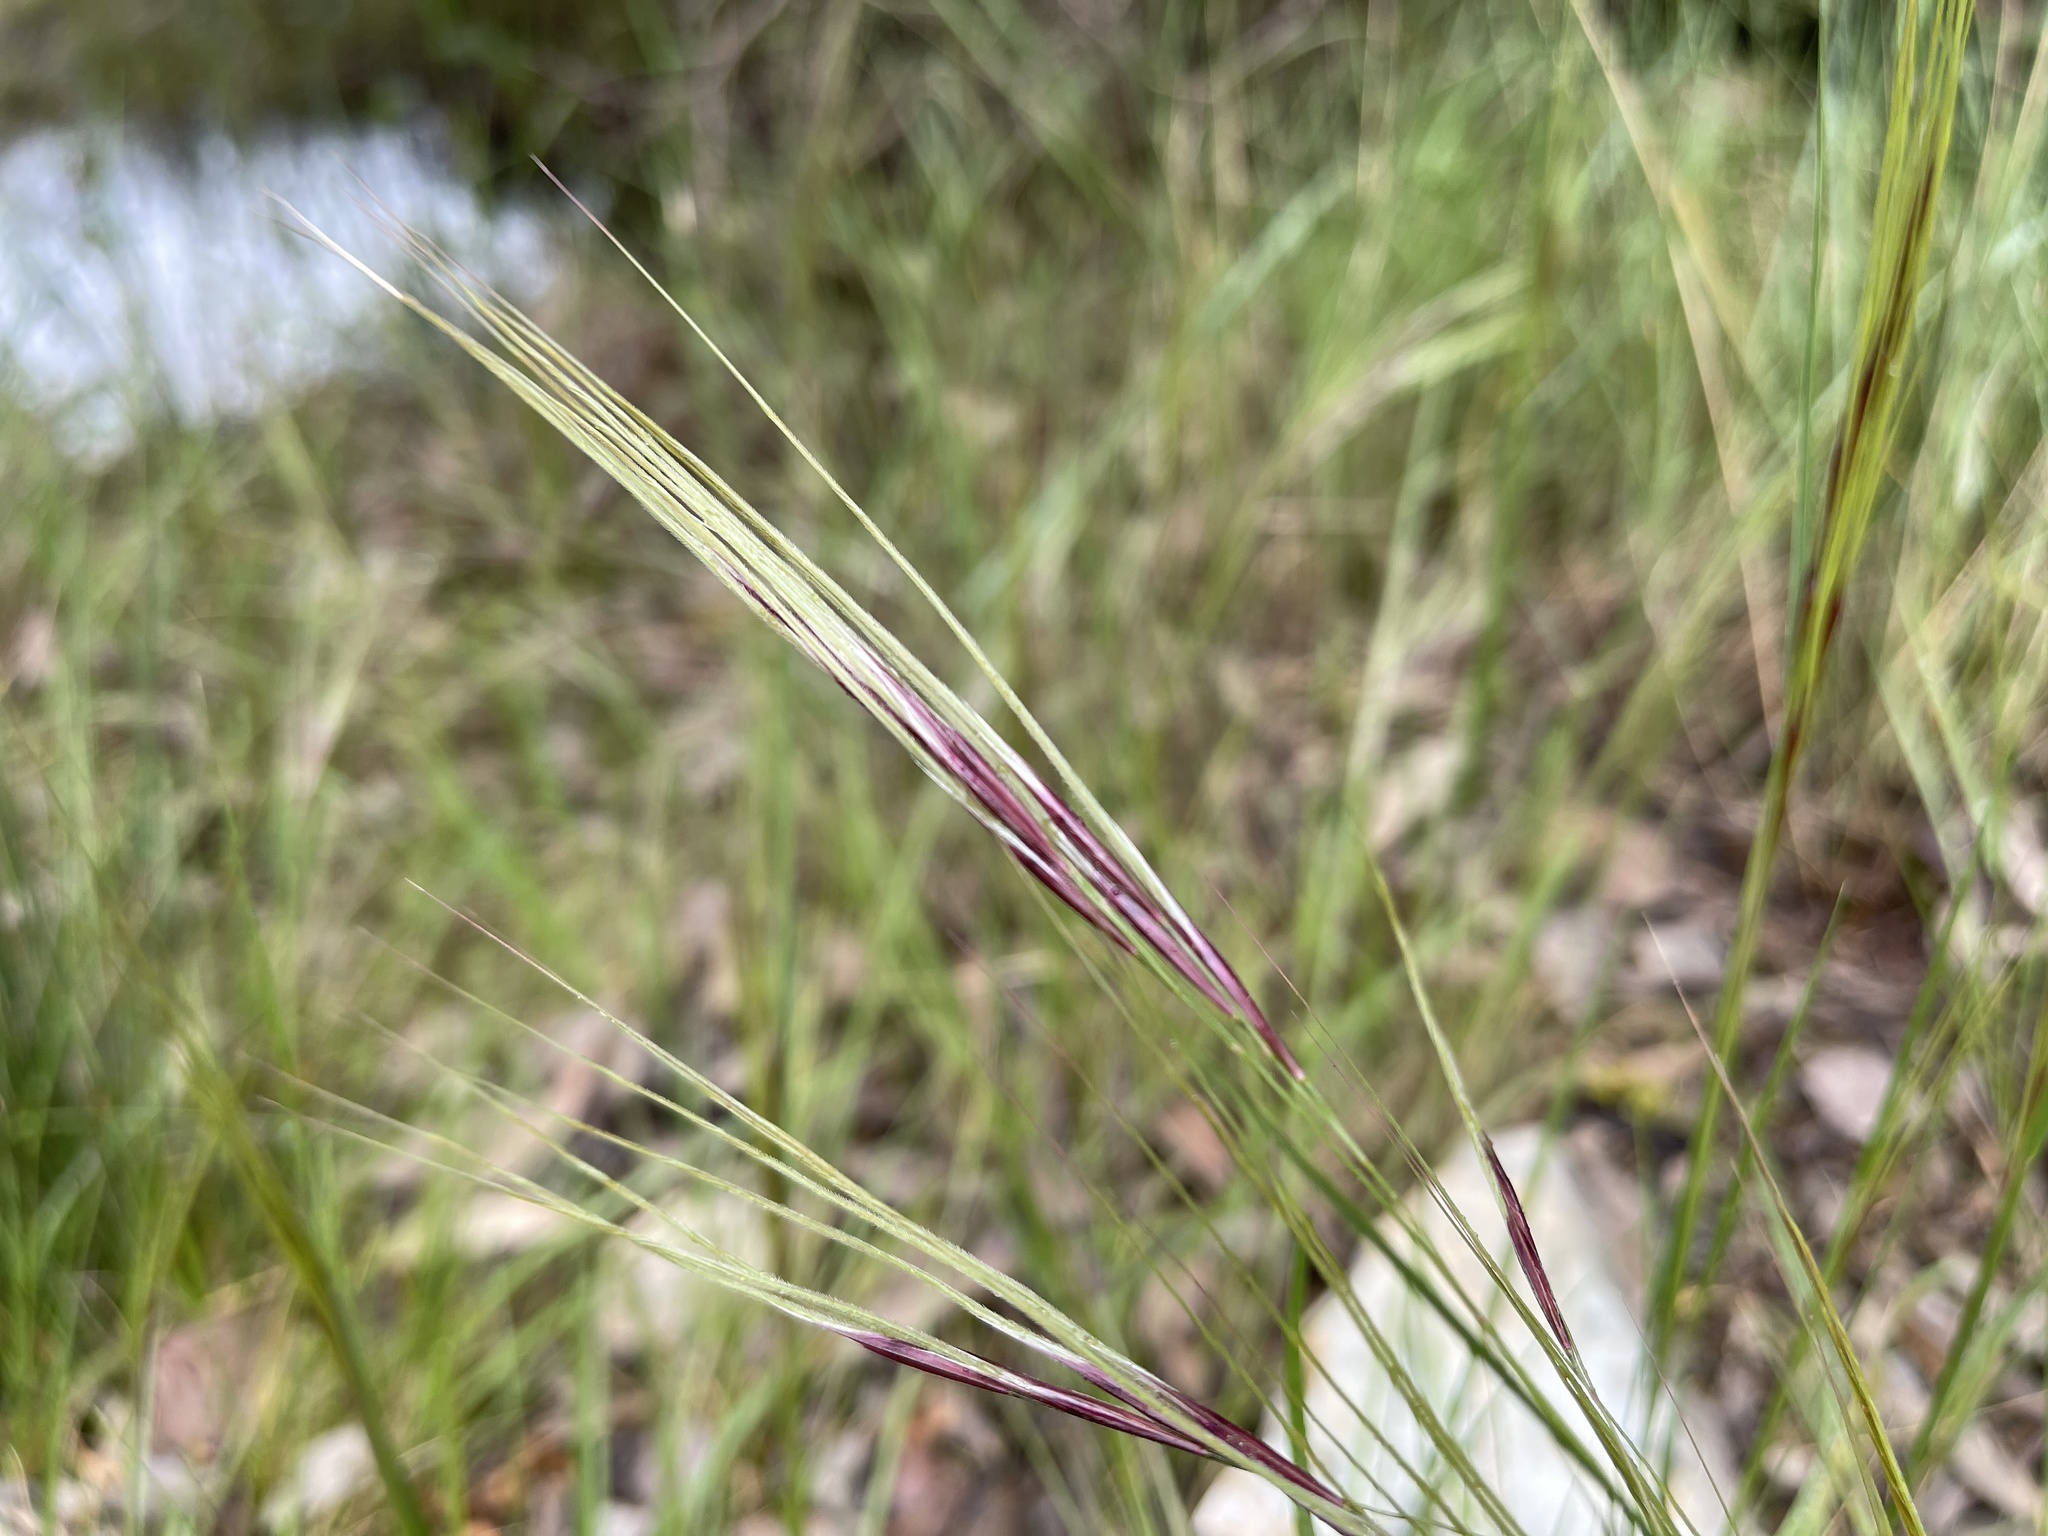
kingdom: Plantae
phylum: Tracheophyta
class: Liliopsida
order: Poales
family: Poaceae
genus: Nassella
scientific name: Nassella neesiana
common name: American needle-grass
